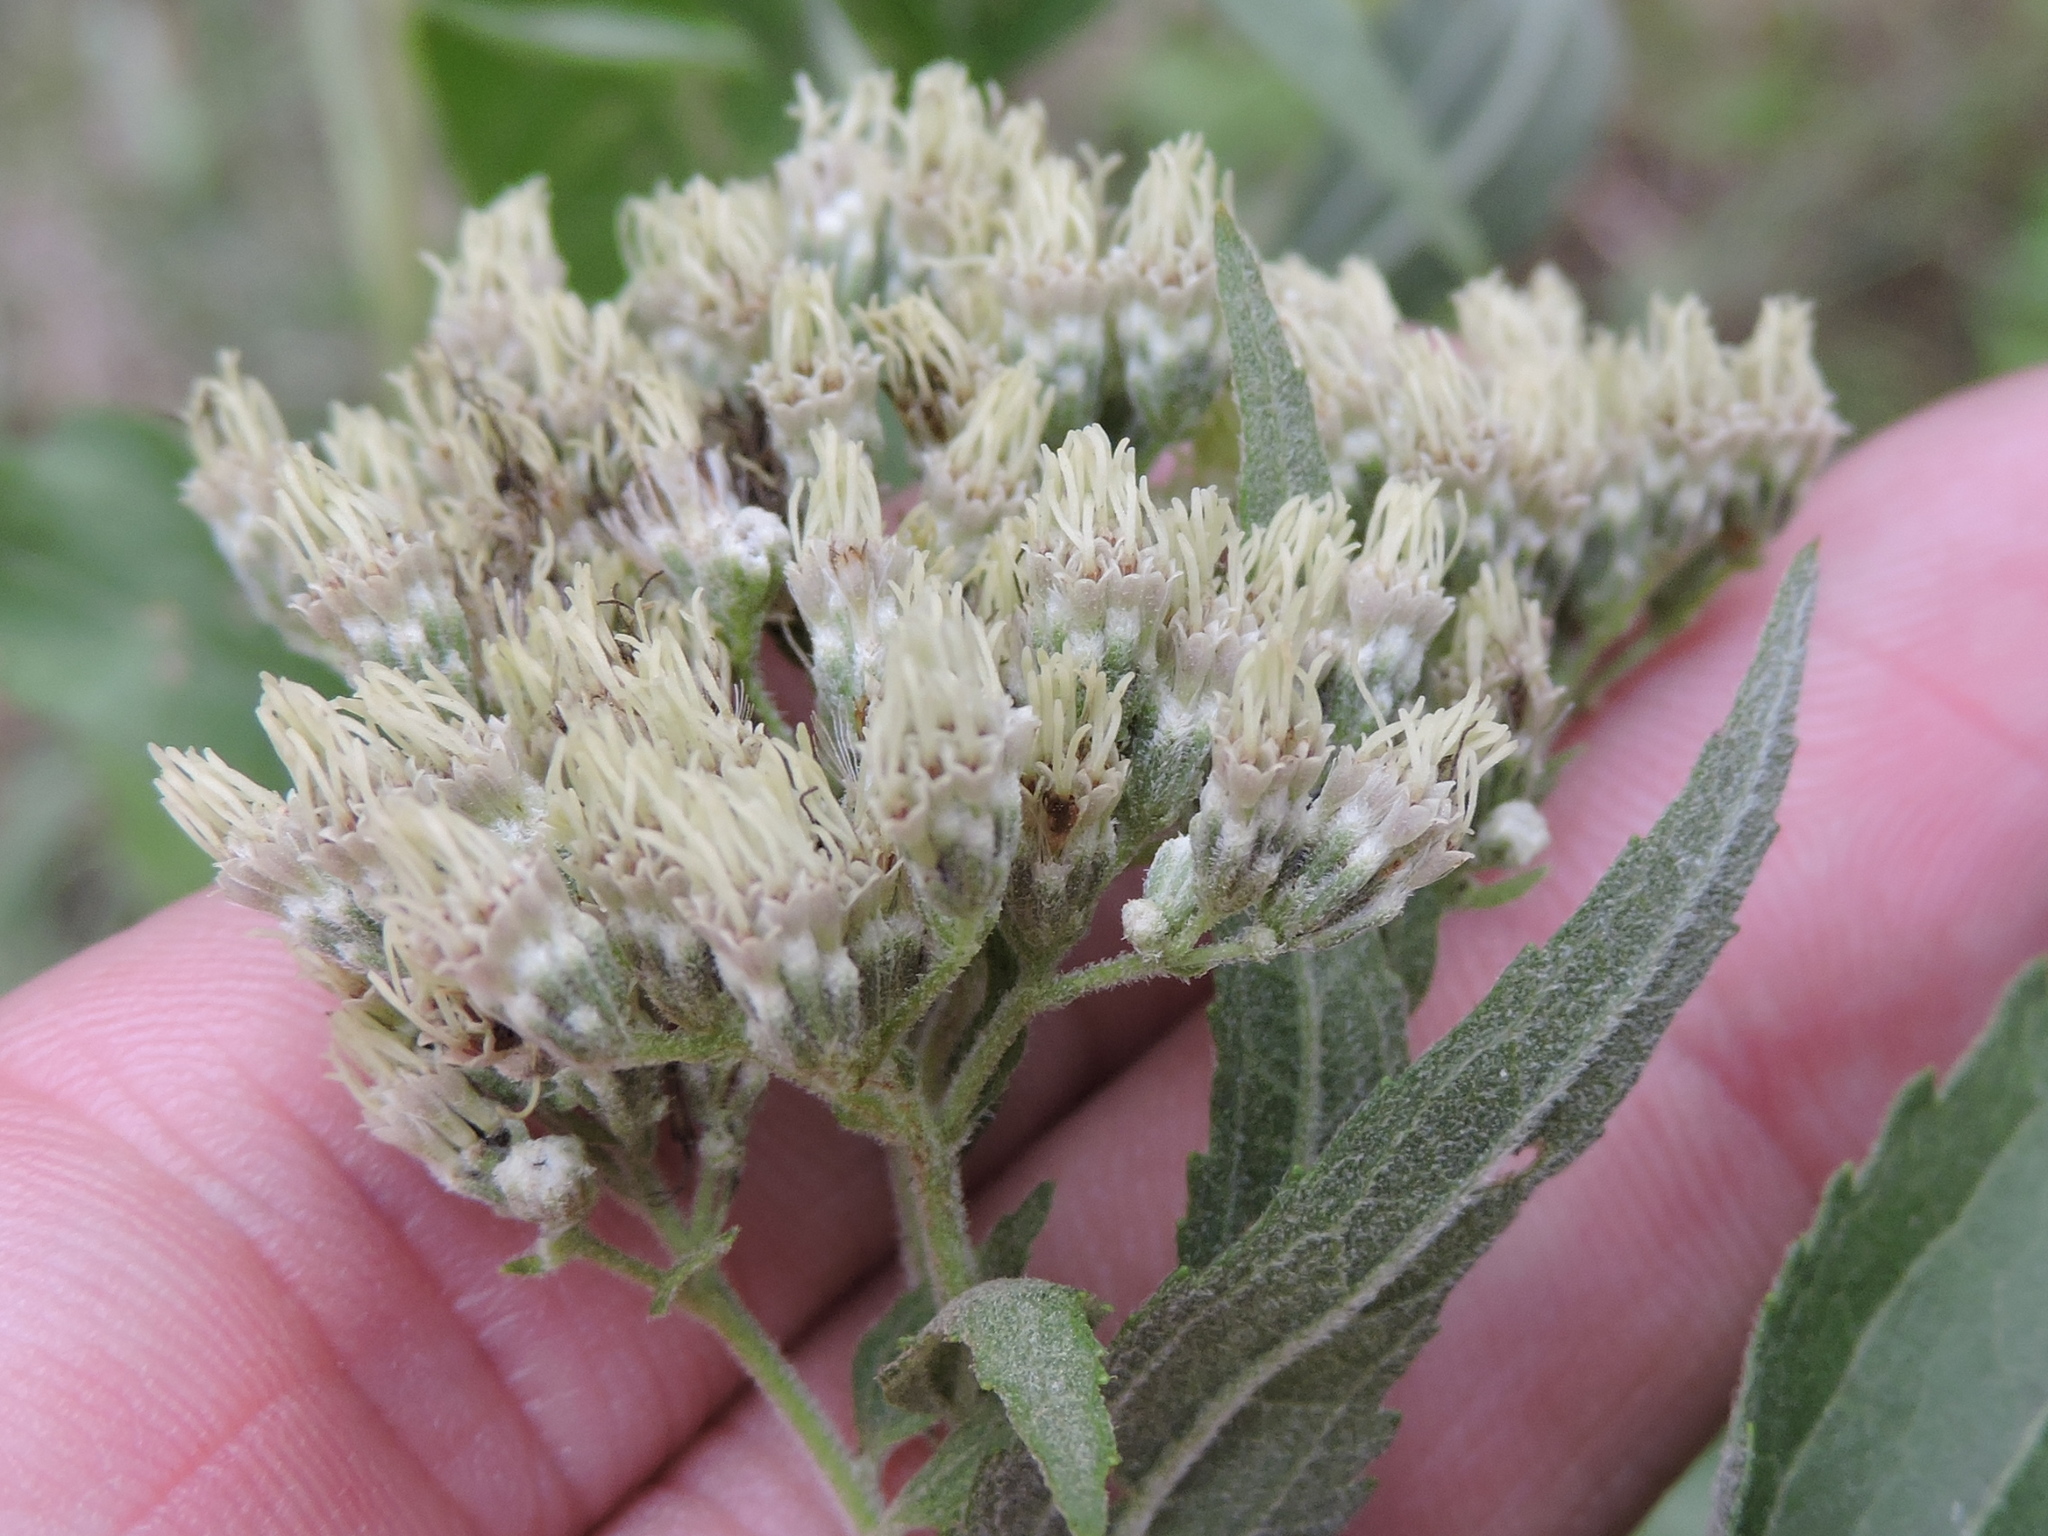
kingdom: Plantae
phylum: Tracheophyta
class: Magnoliopsida
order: Asterales
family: Asteraceae
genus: Eupatorium
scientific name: Eupatorium serotinum
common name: Late boneset
